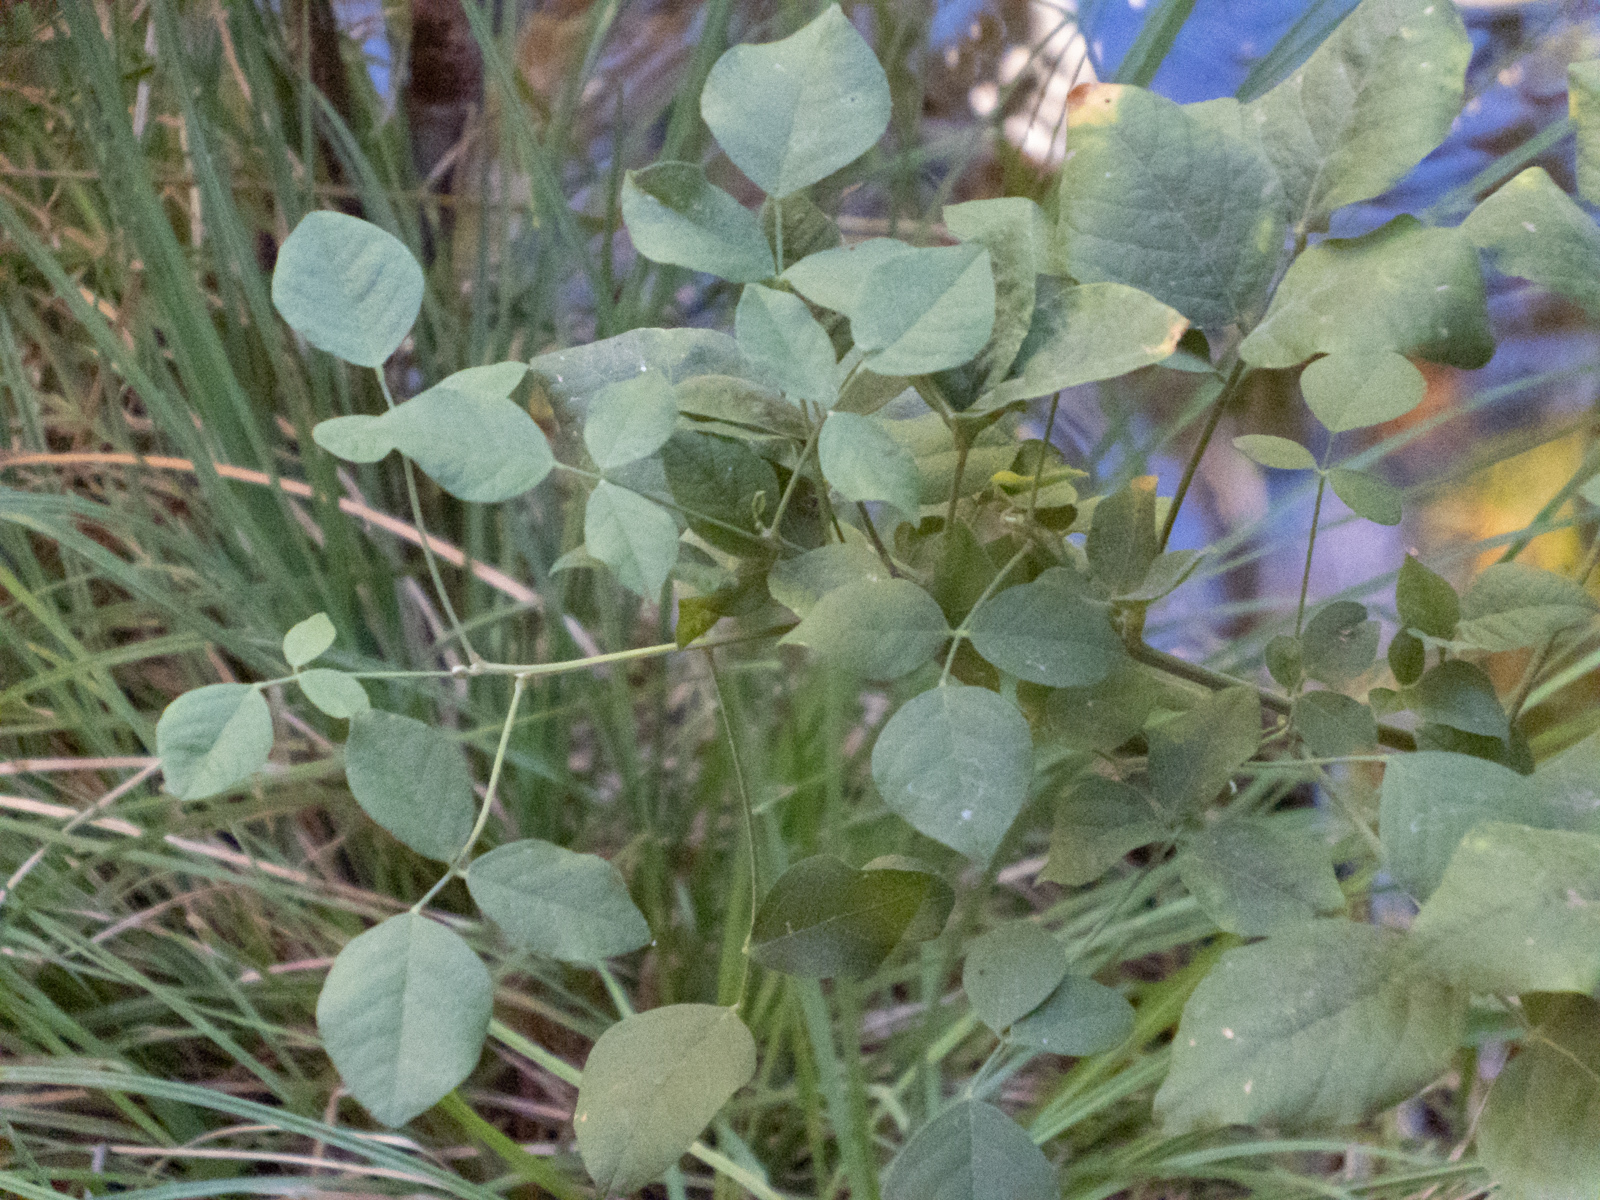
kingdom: Plantae
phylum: Tracheophyta
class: Magnoliopsida
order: Fabales
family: Fabaceae
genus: Hoita
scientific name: Hoita macrostachya
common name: Leatherroot
